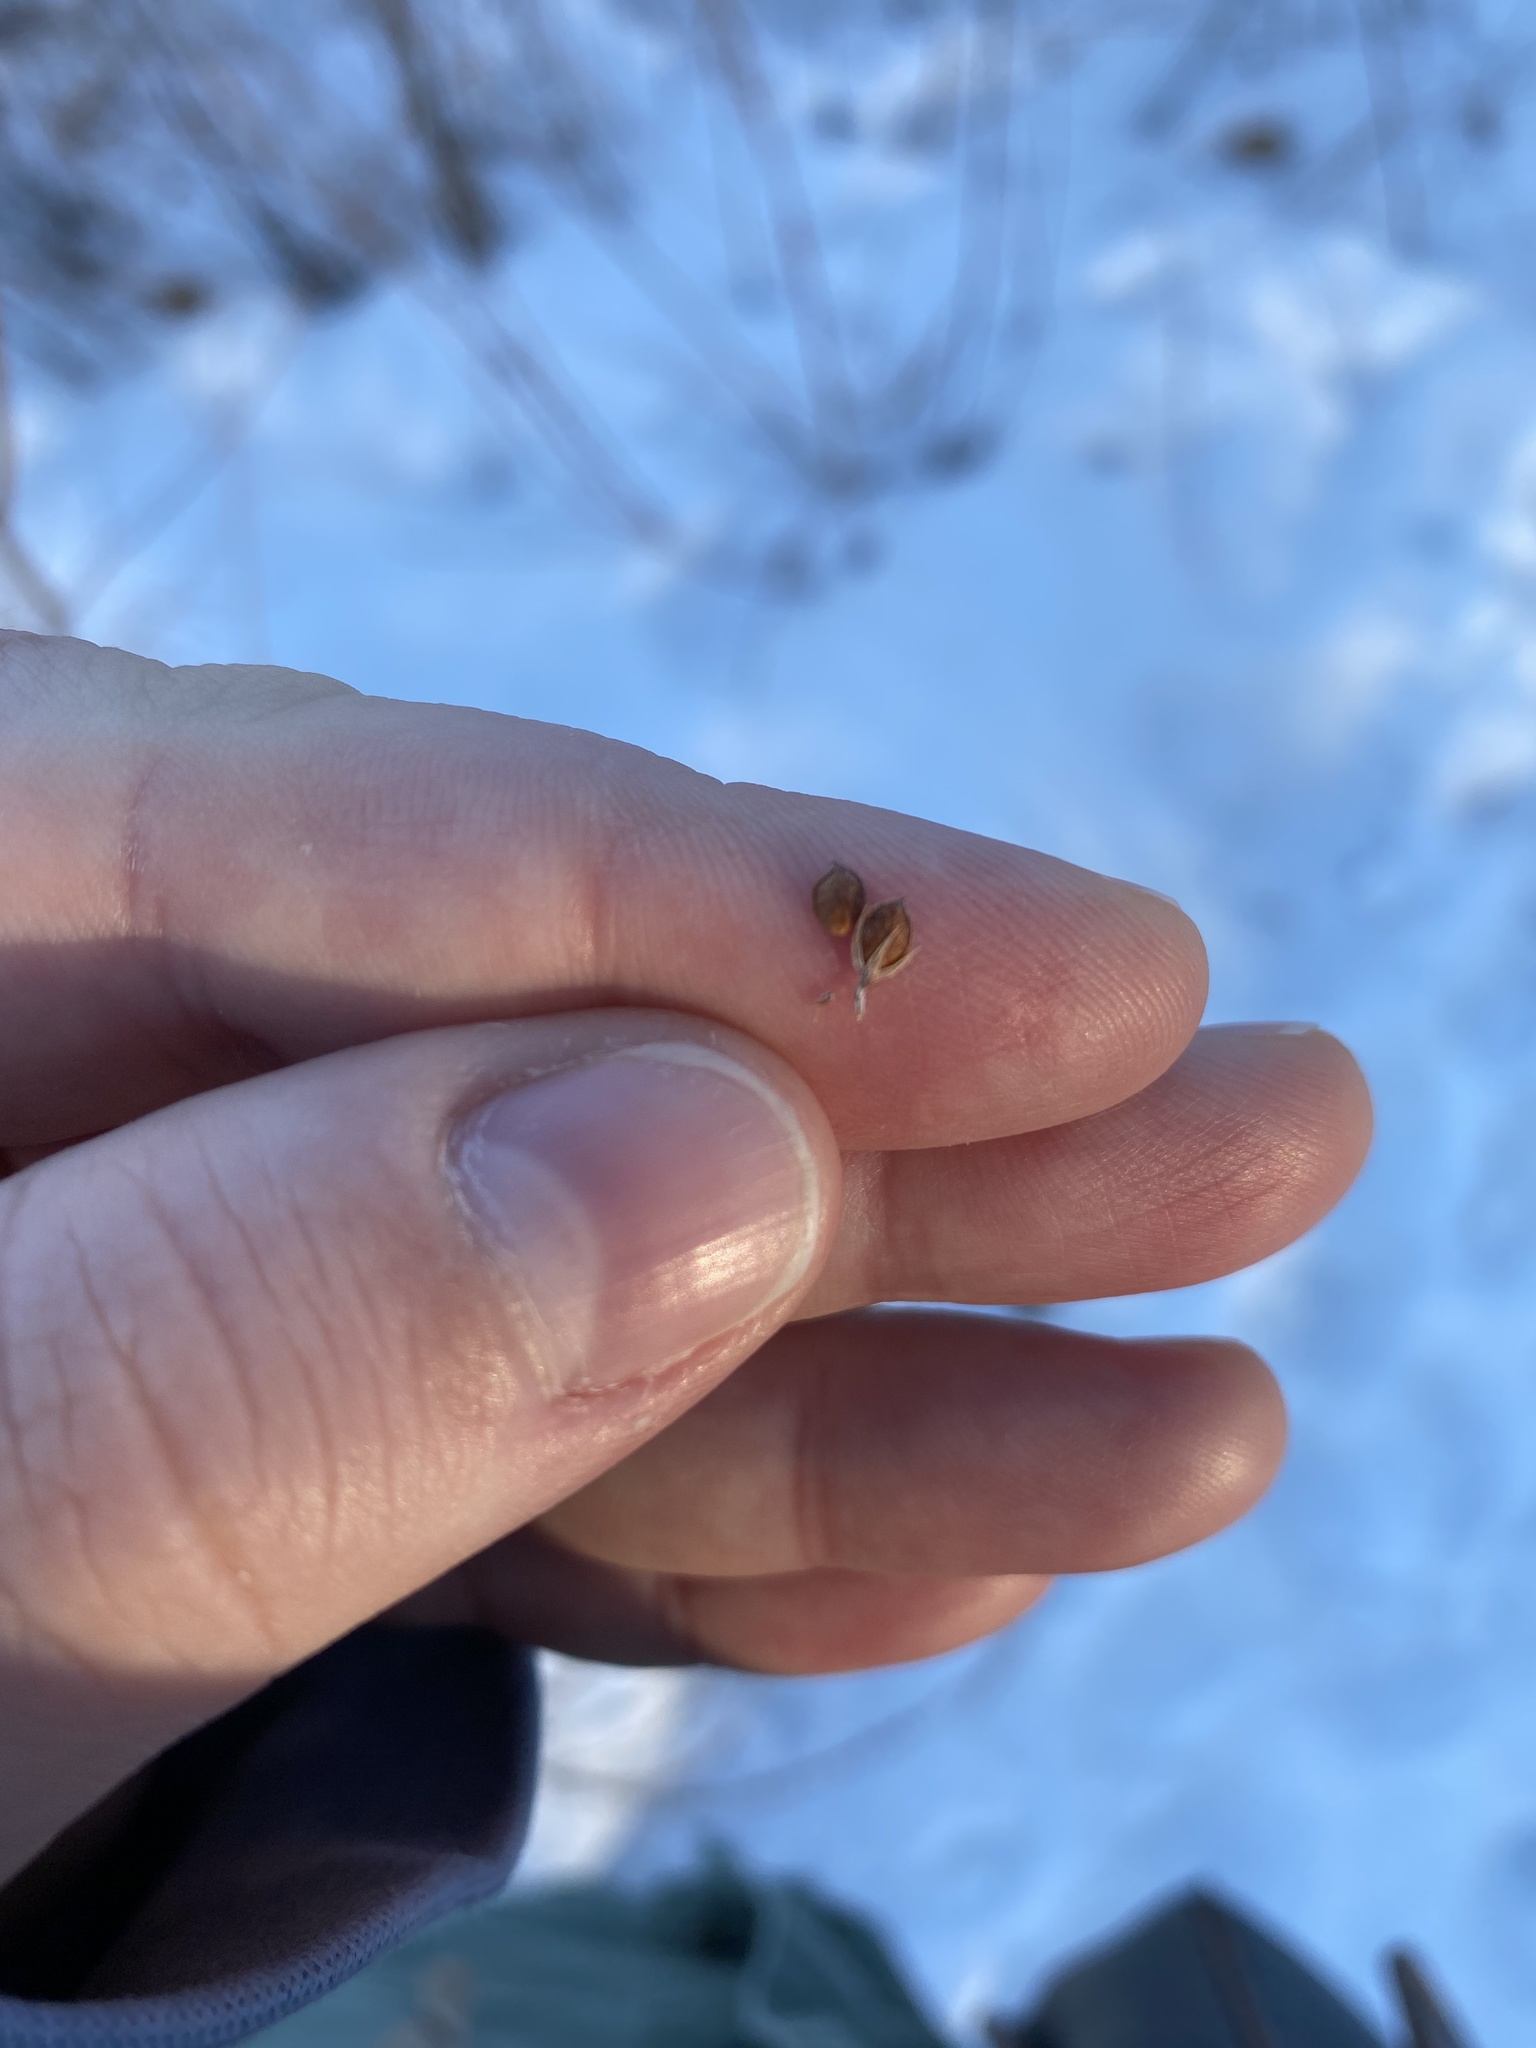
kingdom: Plantae
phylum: Tracheophyta
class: Magnoliopsida
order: Fabales
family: Fabaceae
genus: Lespedeza
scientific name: Lespedeza cuneata
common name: Chinese bush-clover
